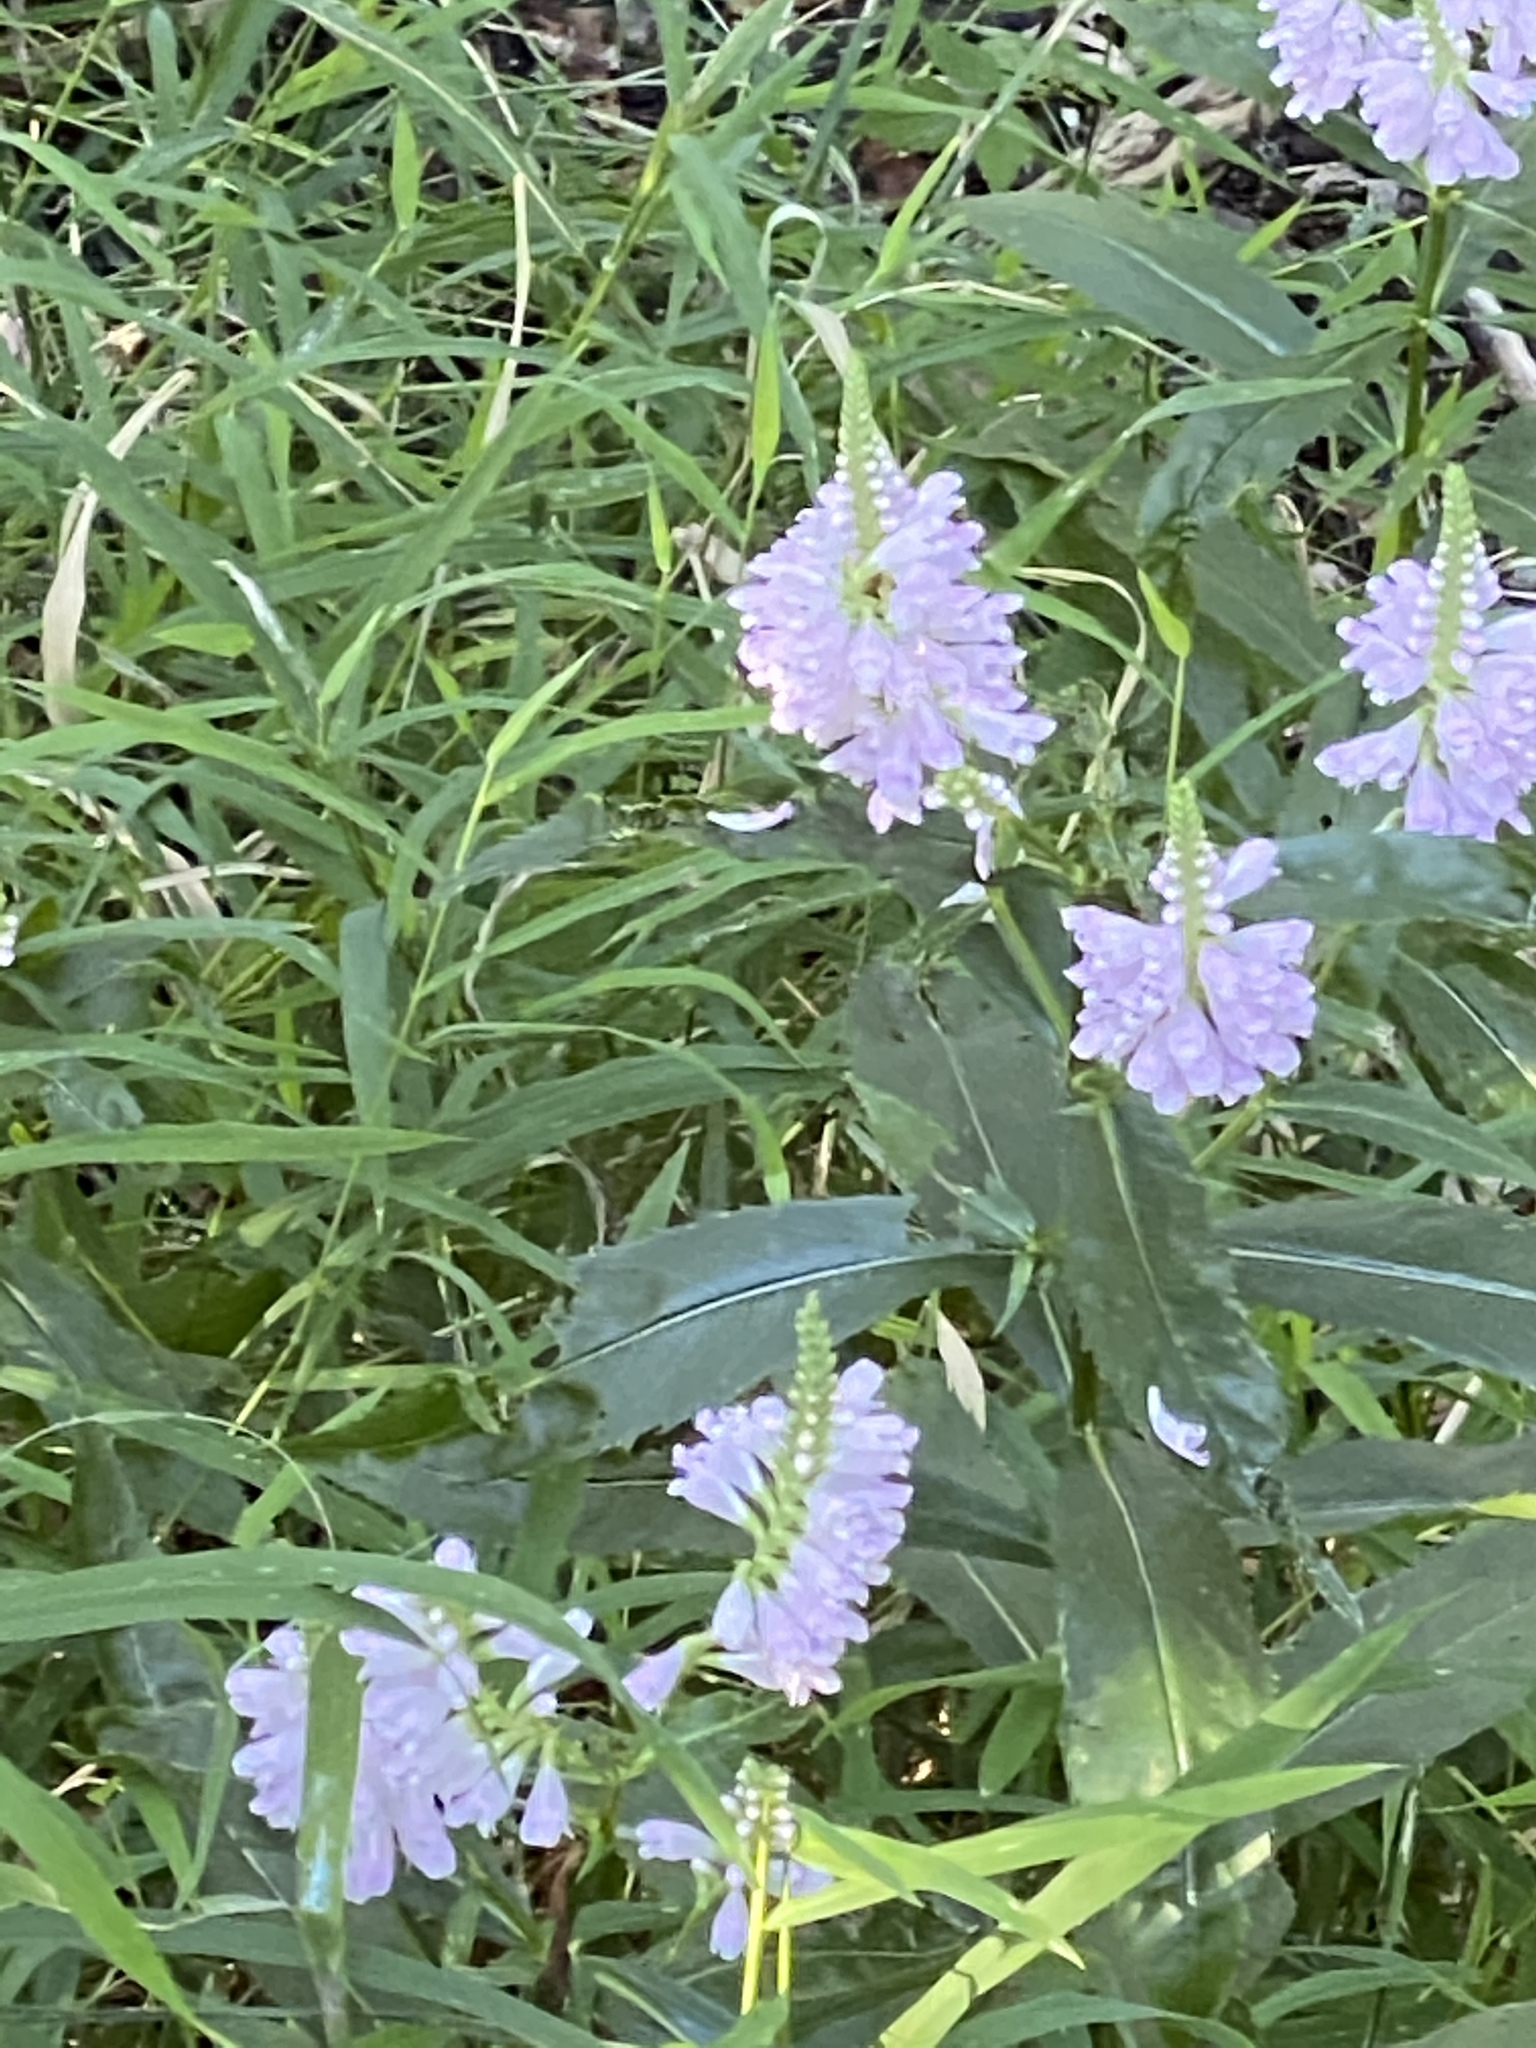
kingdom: Plantae
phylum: Tracheophyta
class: Magnoliopsida
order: Lamiales
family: Lamiaceae
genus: Physostegia
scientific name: Physostegia virginiana
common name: Obedient-plant
